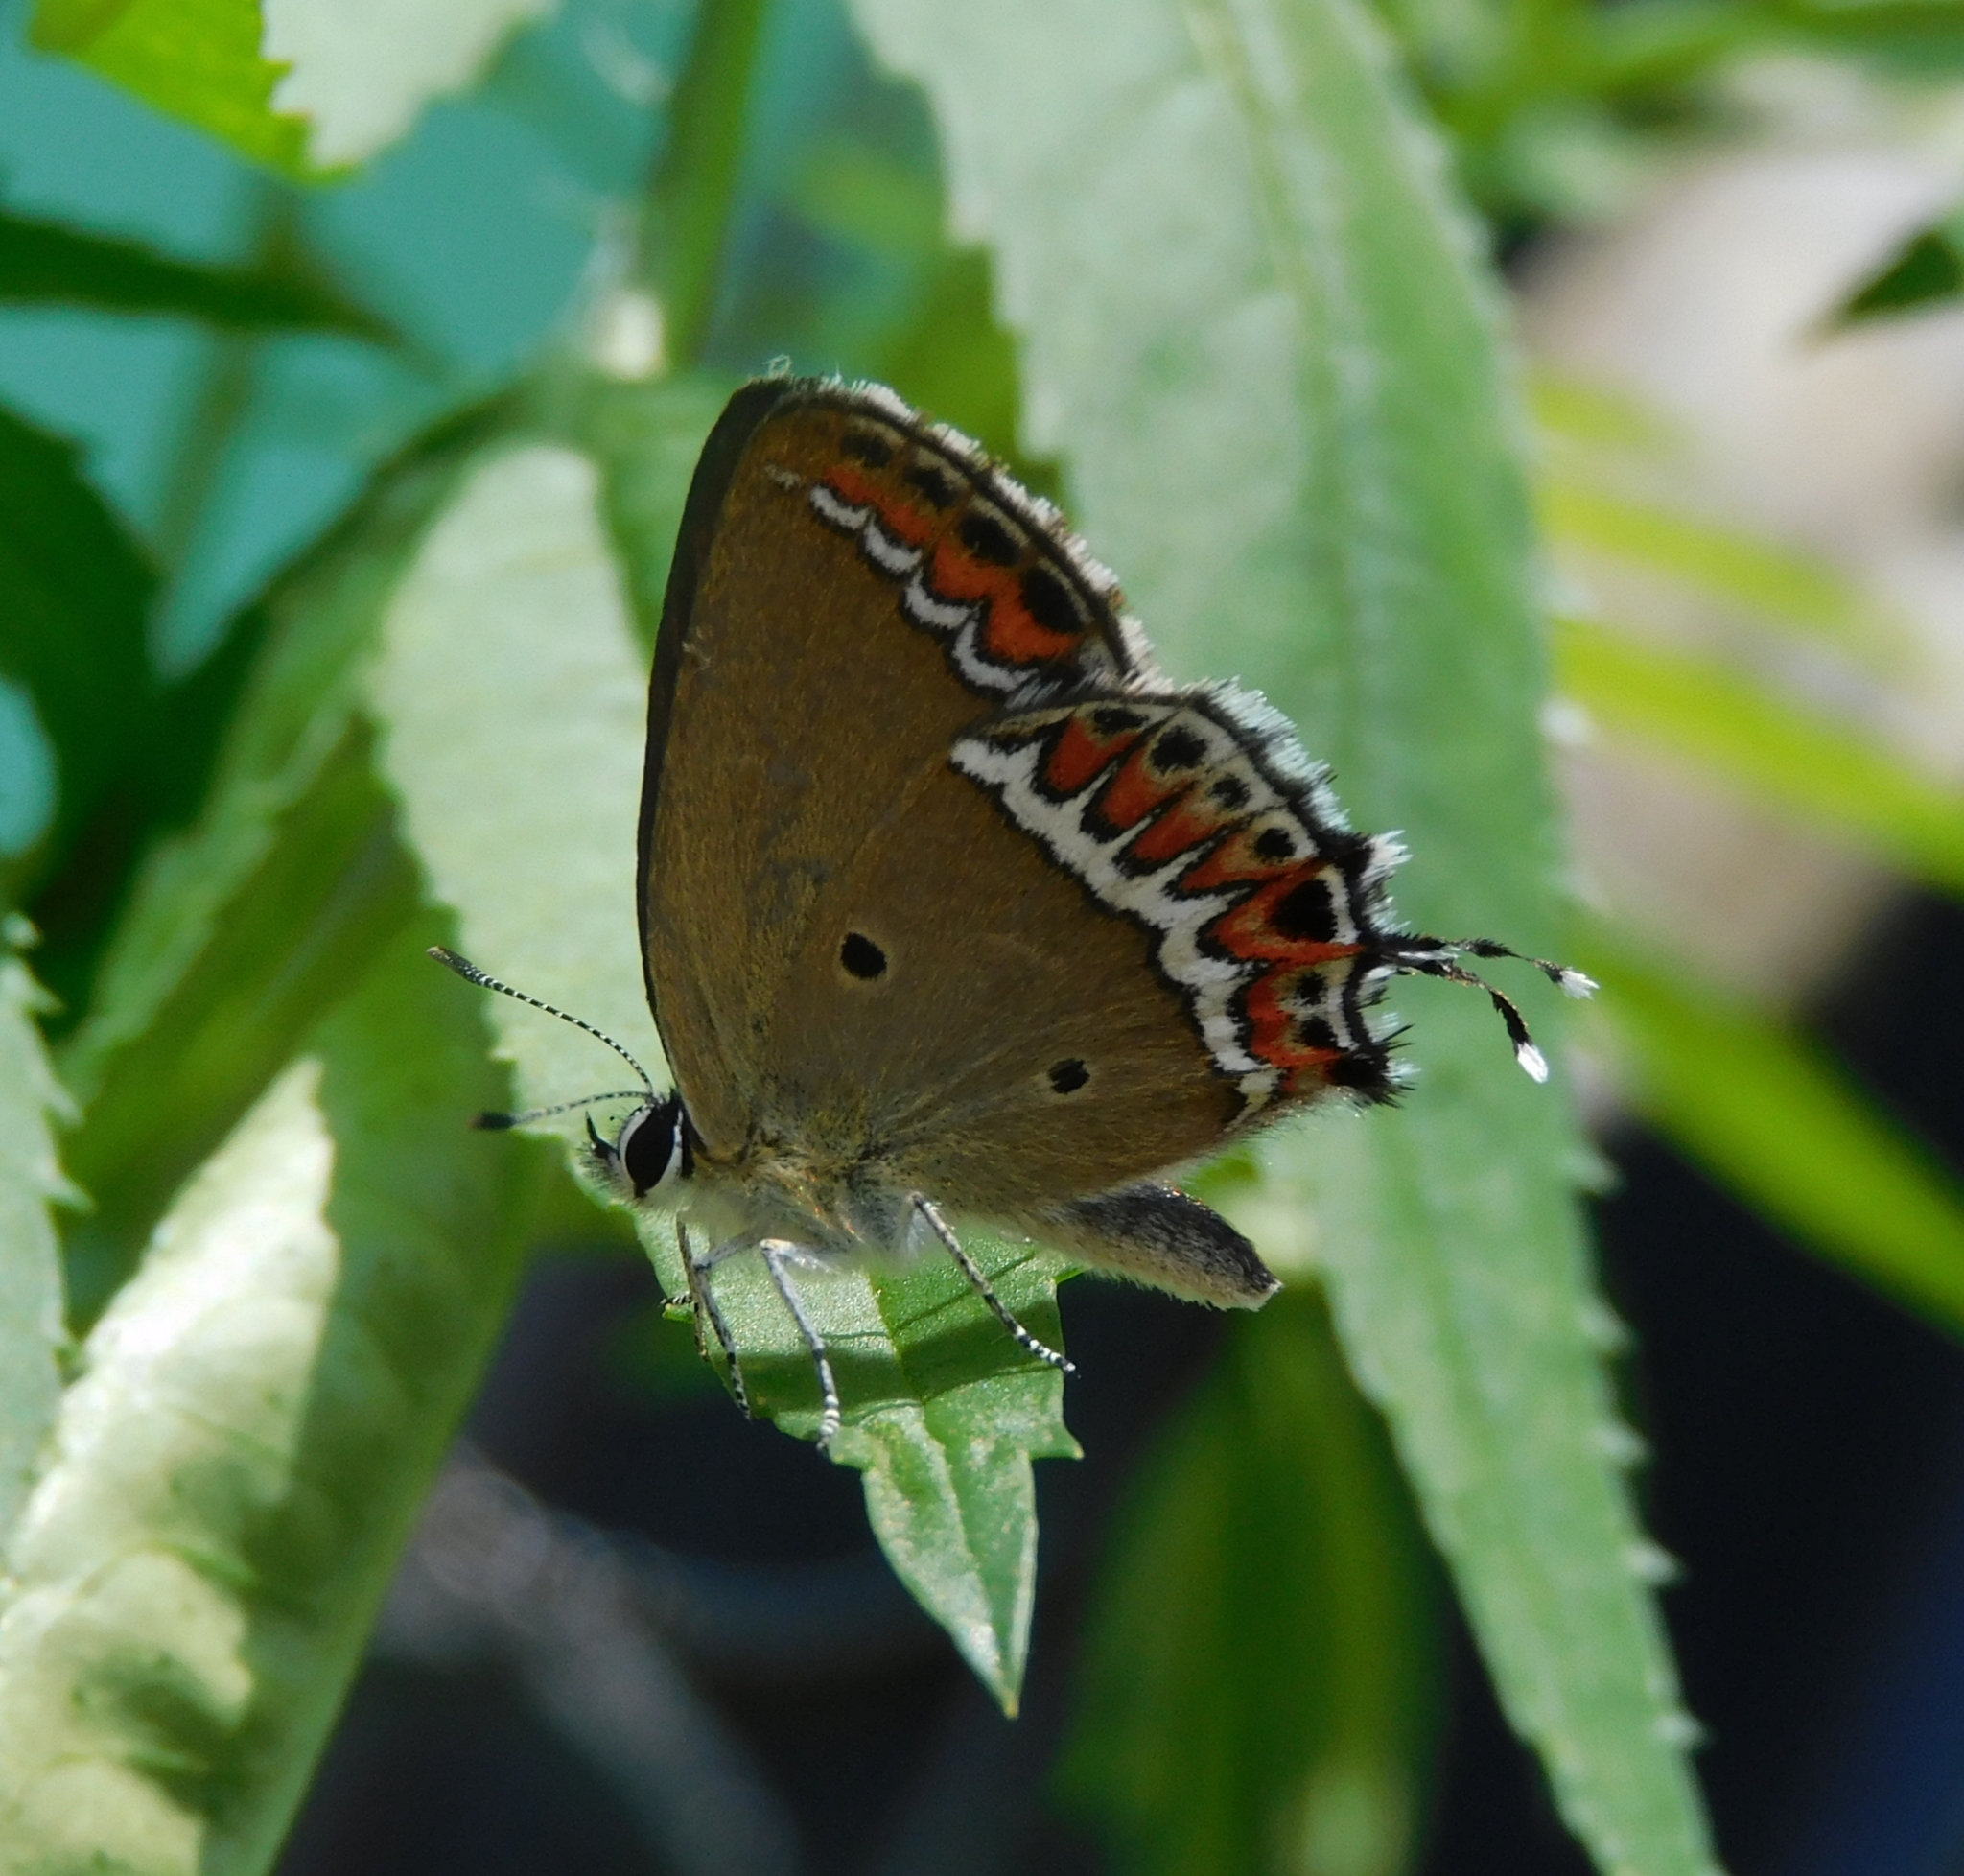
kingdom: Animalia
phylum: Arthropoda
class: Insecta
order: Lepidoptera
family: Lycaenidae
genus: Heliophorus
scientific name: Heliophorus sena
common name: Sorrel sapphire
